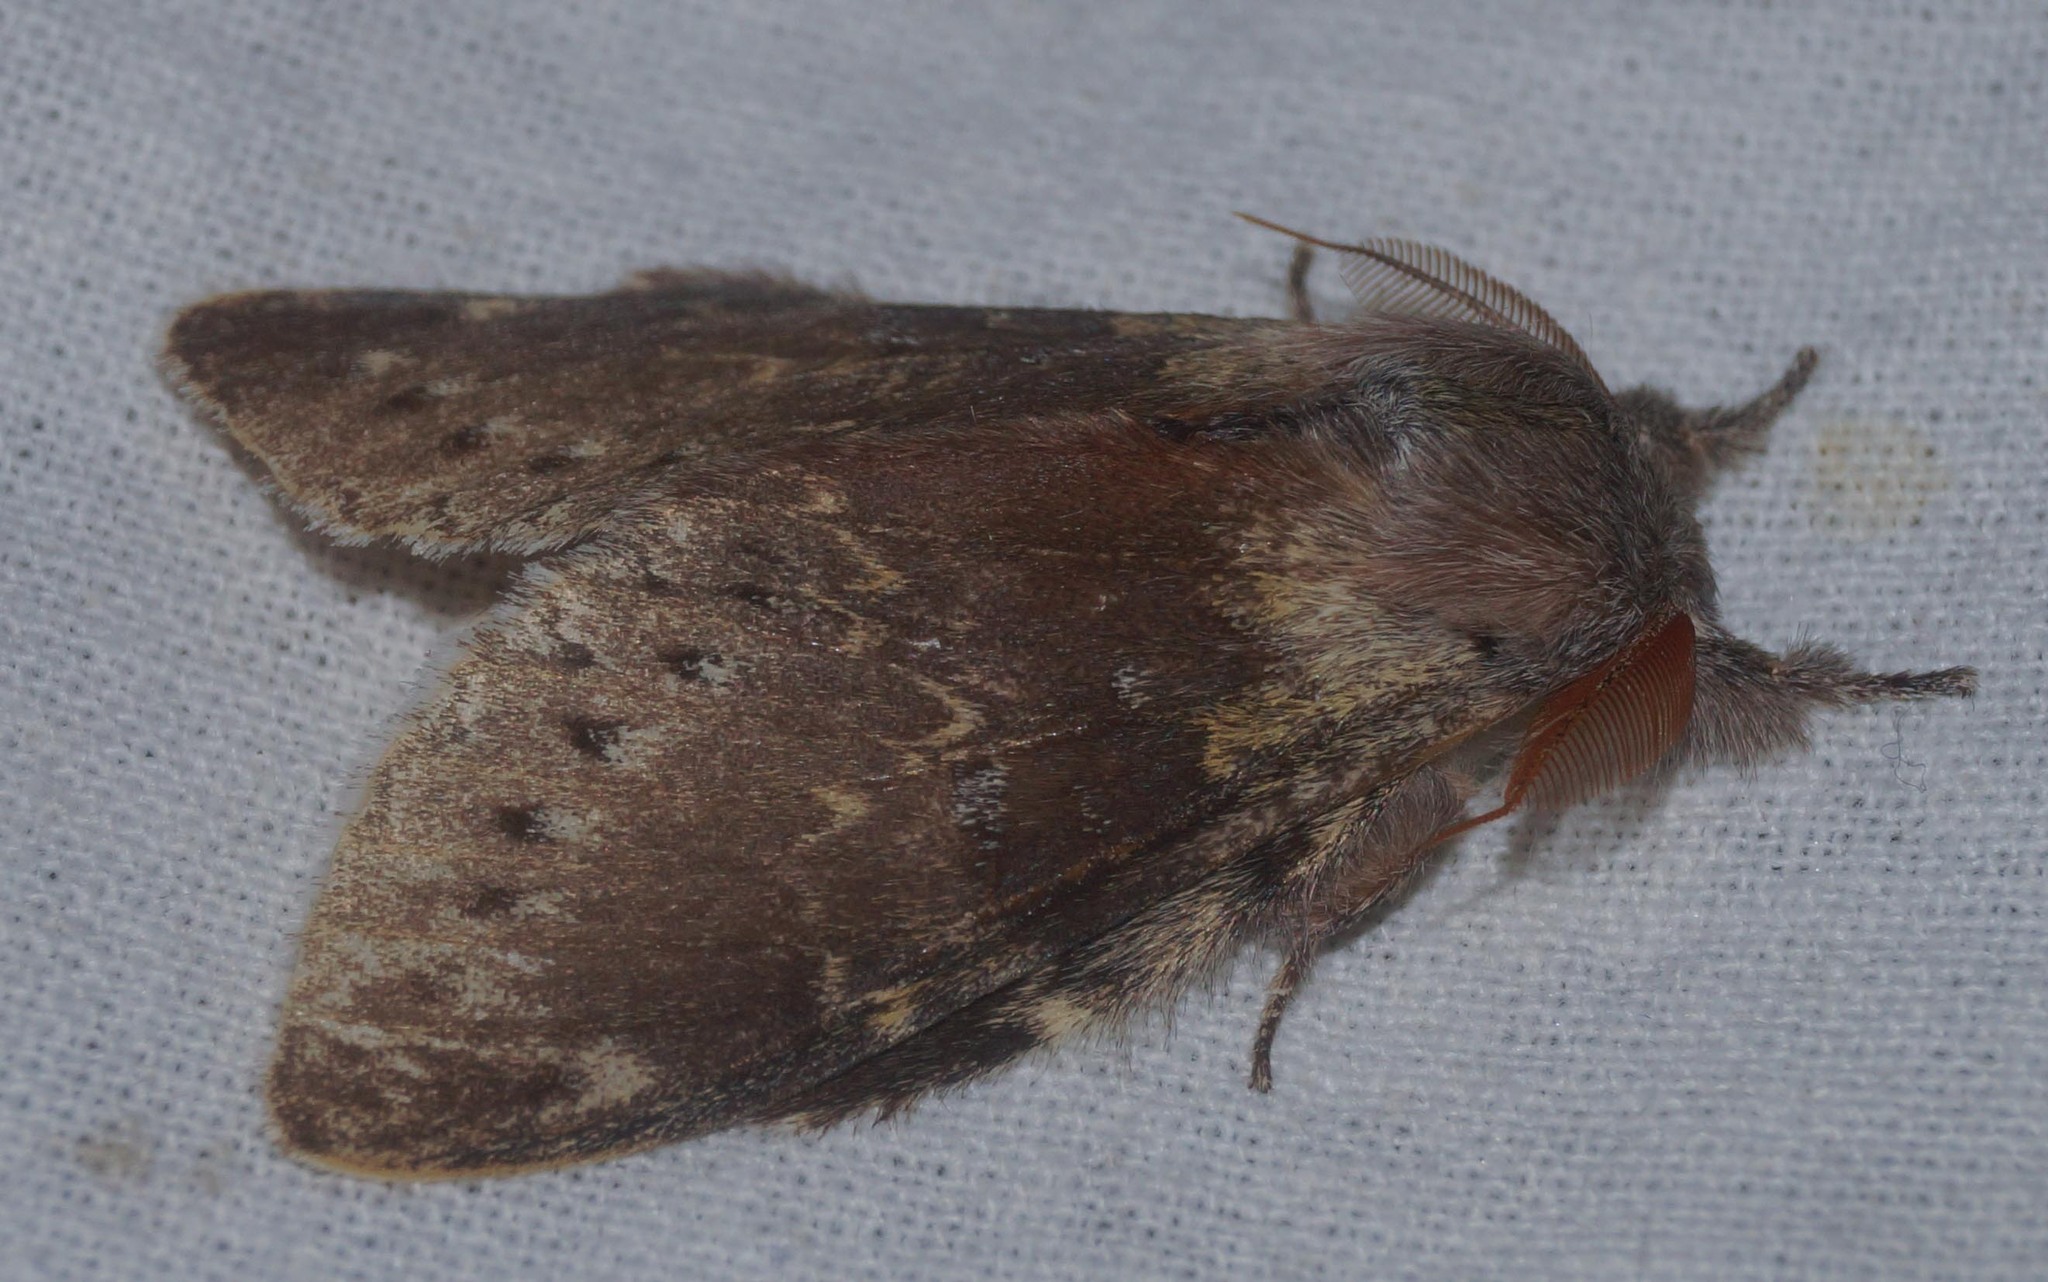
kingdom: Animalia
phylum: Arthropoda
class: Insecta
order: Lepidoptera
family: Notodontidae
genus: Stauropus
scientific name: Stauropus fagi
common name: Lobster moth
